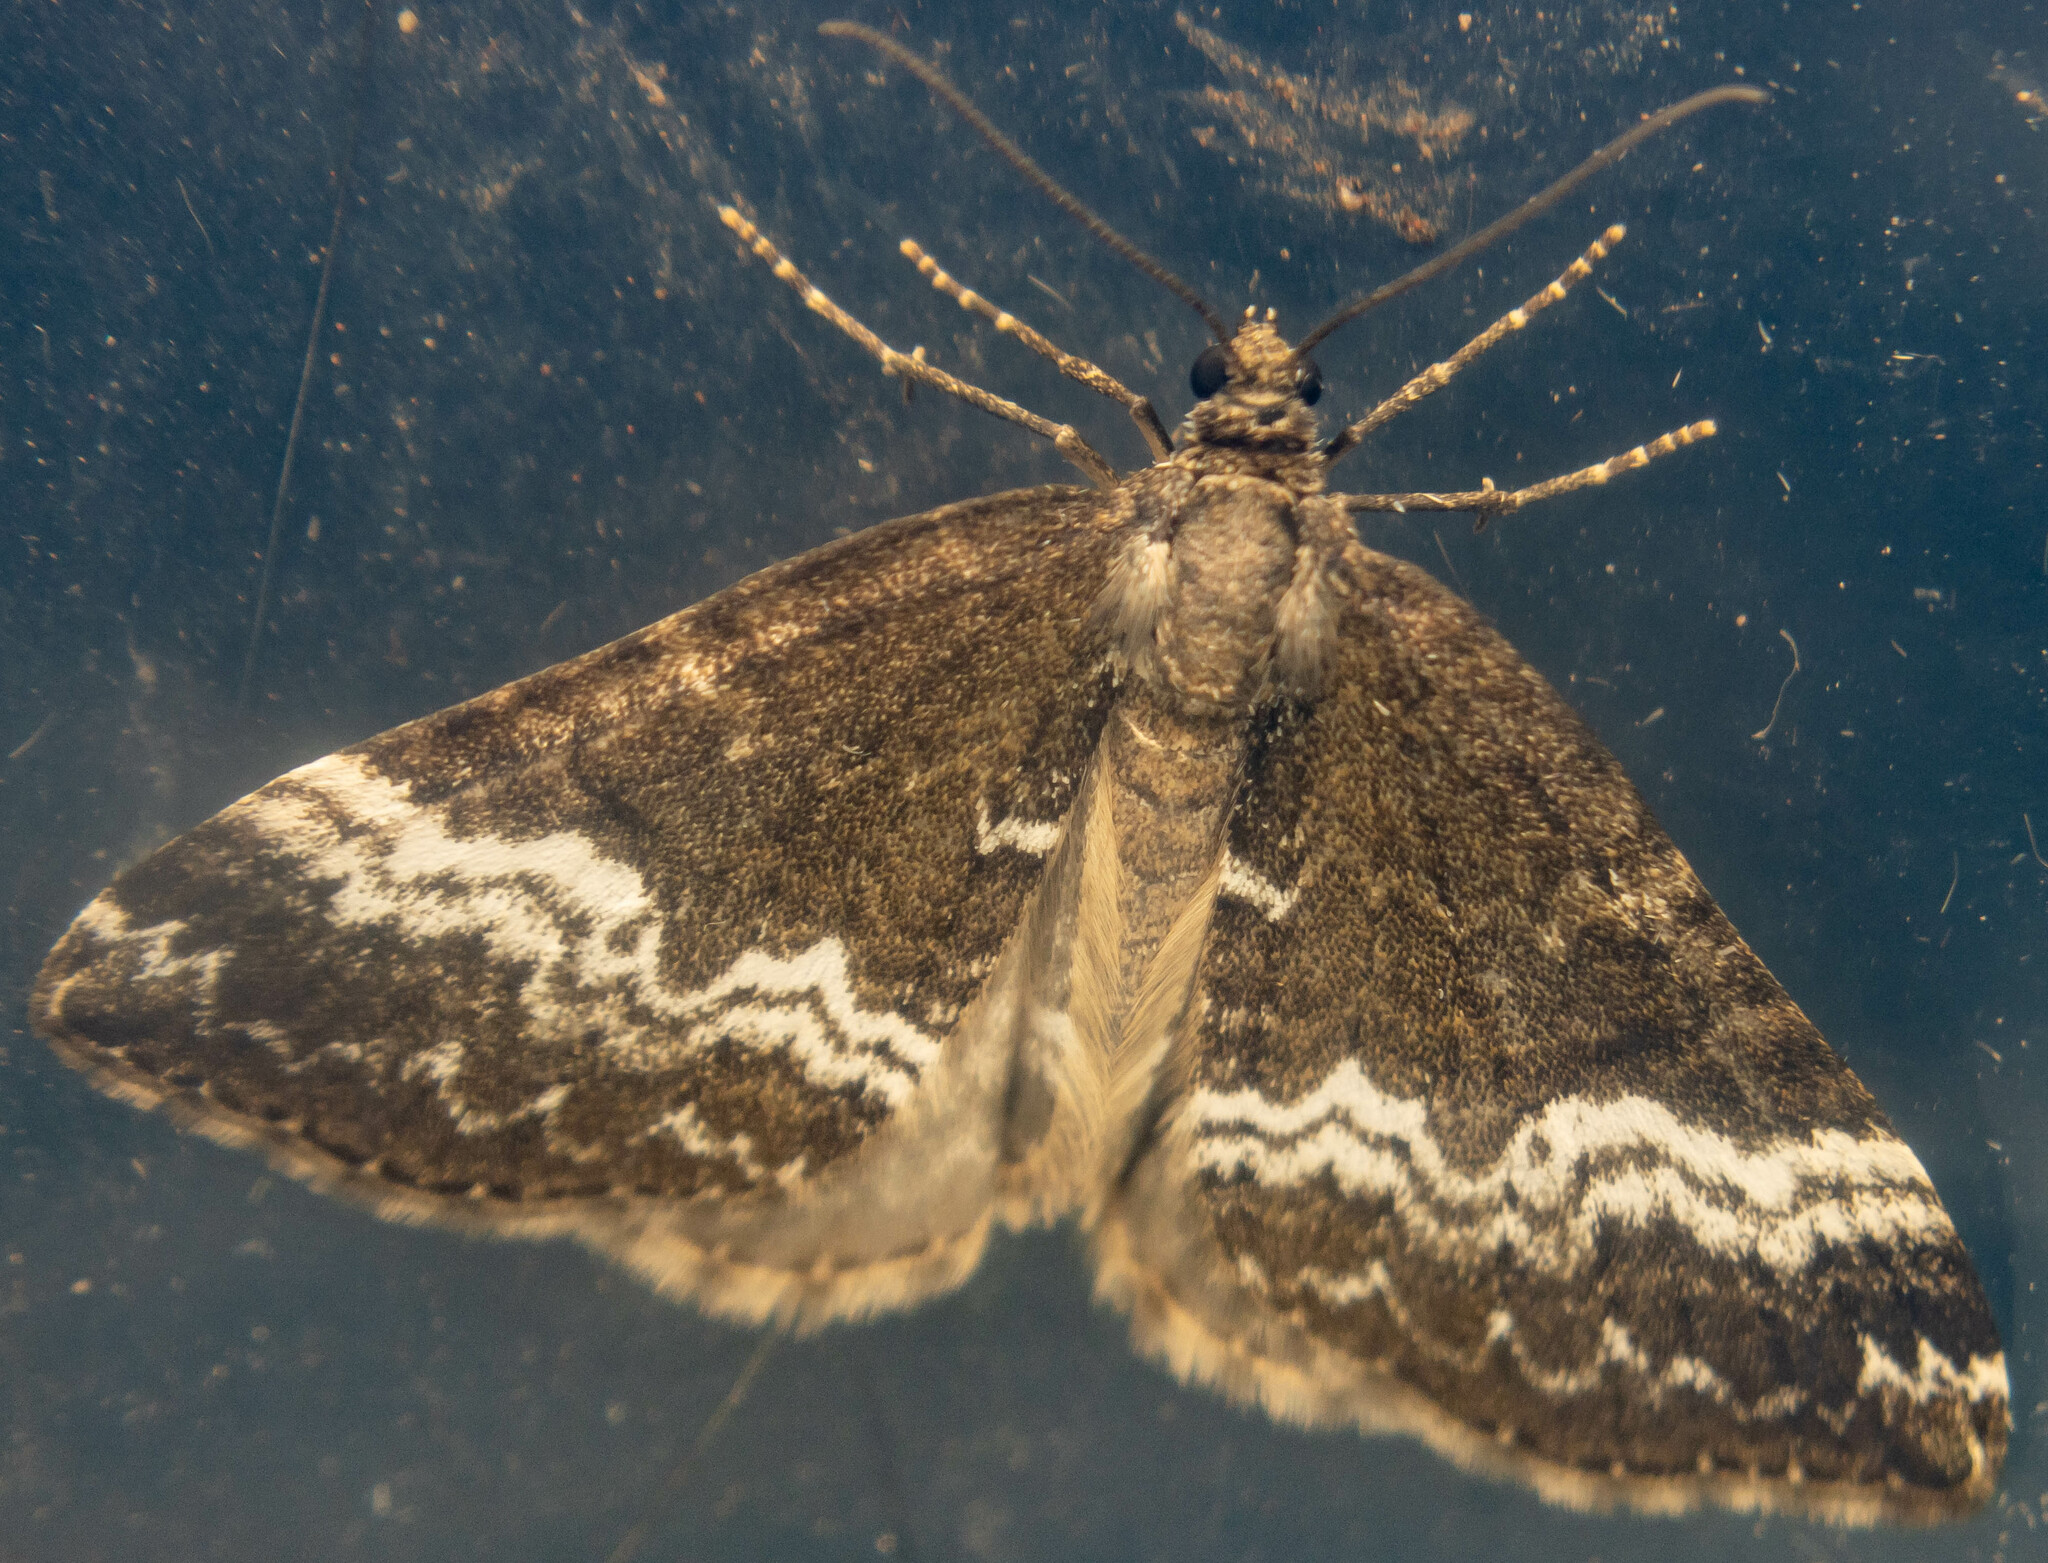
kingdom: Animalia
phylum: Arthropoda
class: Insecta
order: Lepidoptera
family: Geometridae
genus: Perizoma
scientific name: Perizoma affinitata
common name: Rivulet
